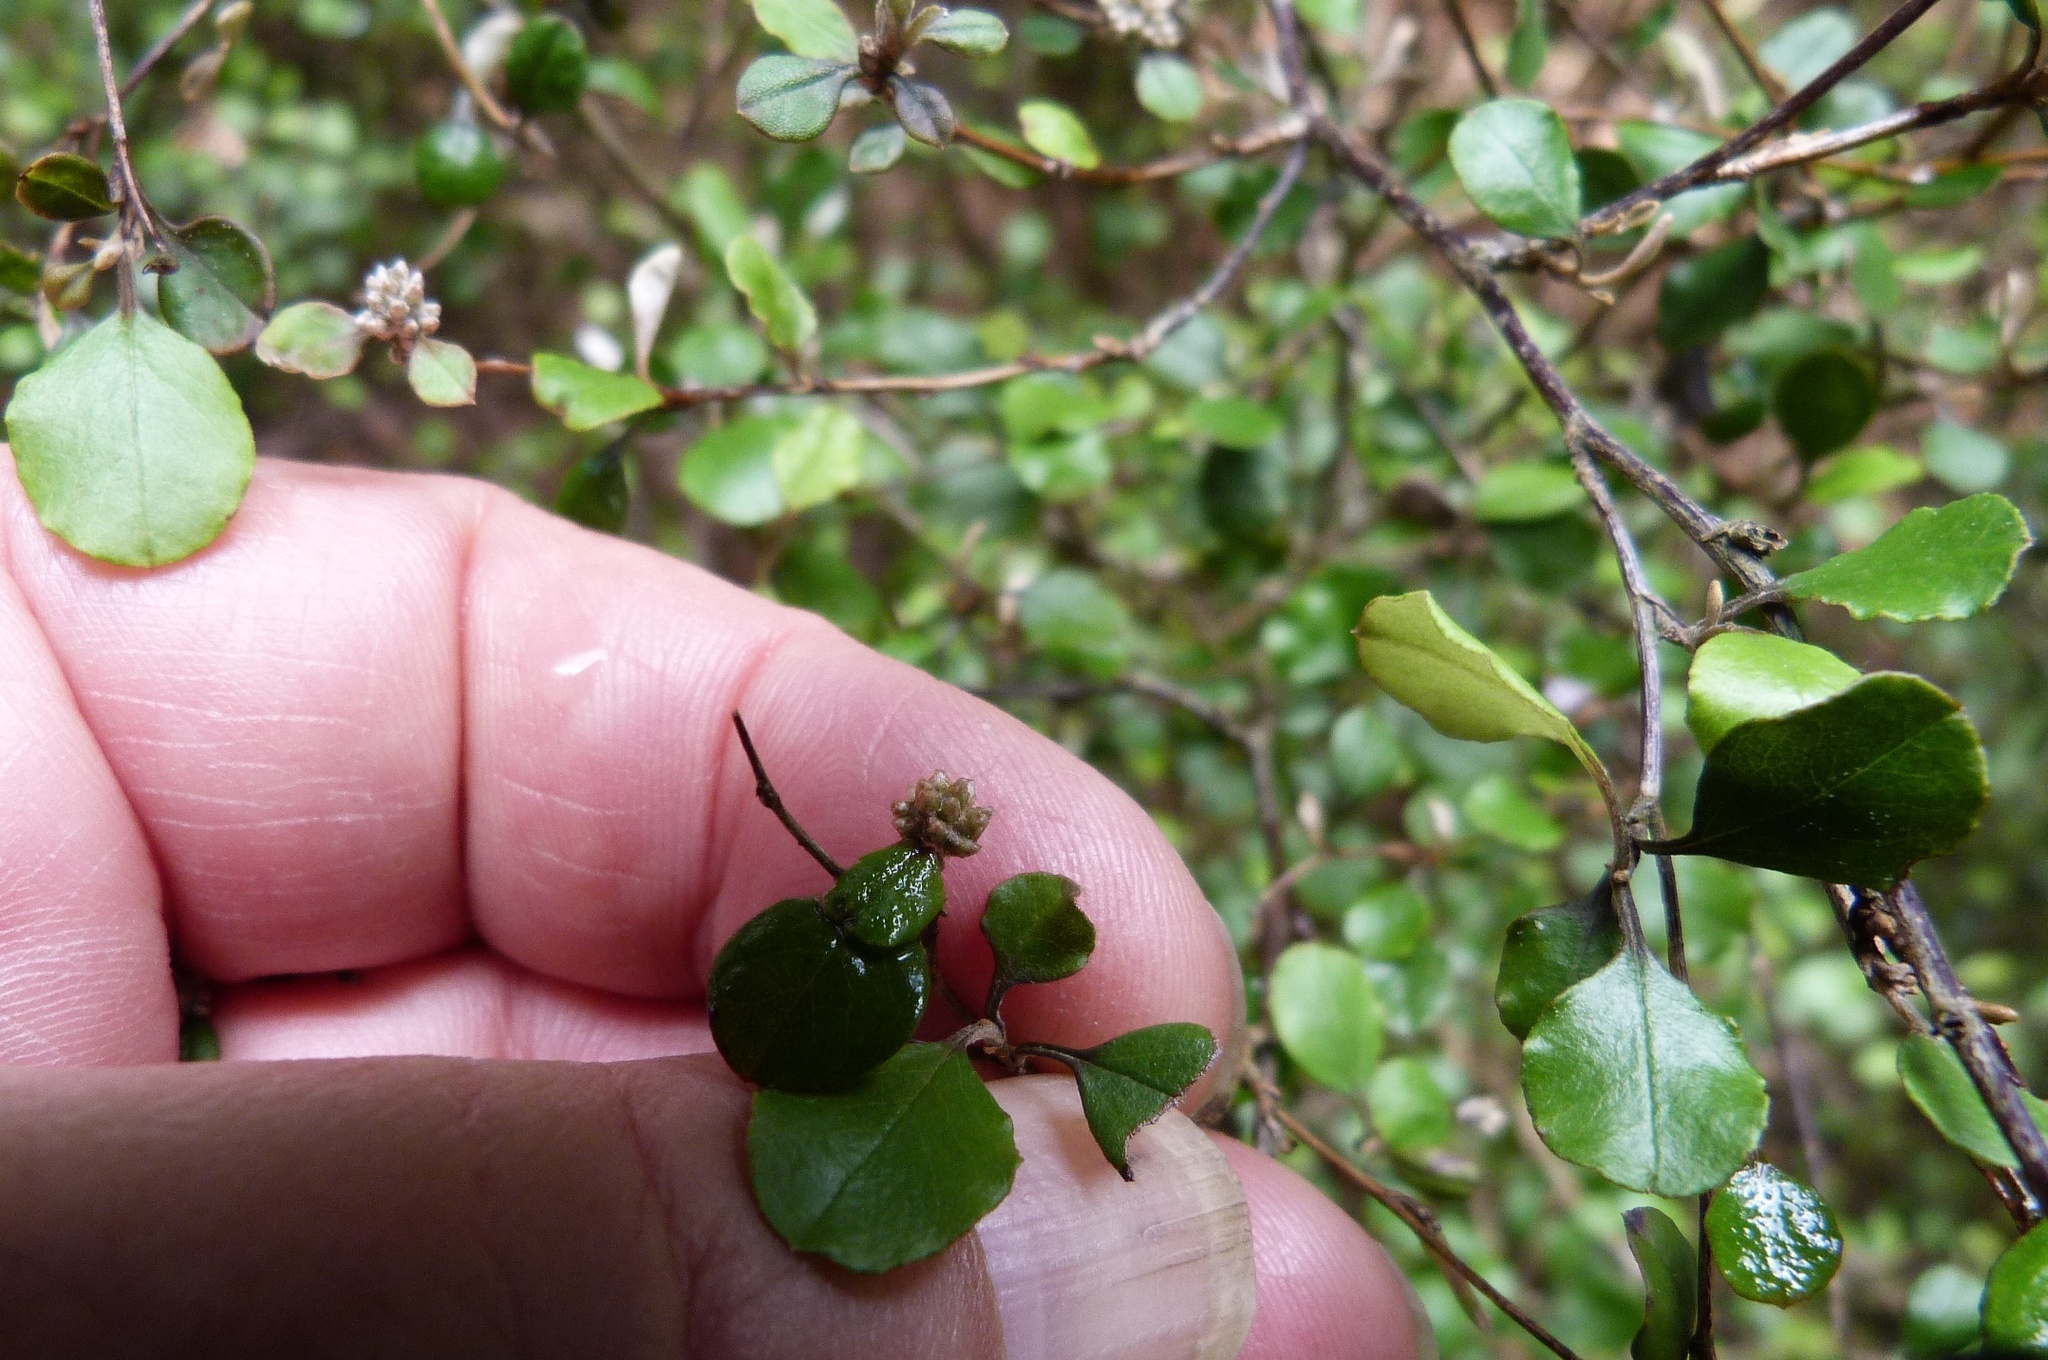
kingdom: Plantae
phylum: Tracheophyta
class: Magnoliopsida
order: Asterales
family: Asteraceae
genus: Ozothamnus
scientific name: Ozothamnus glomeratus
